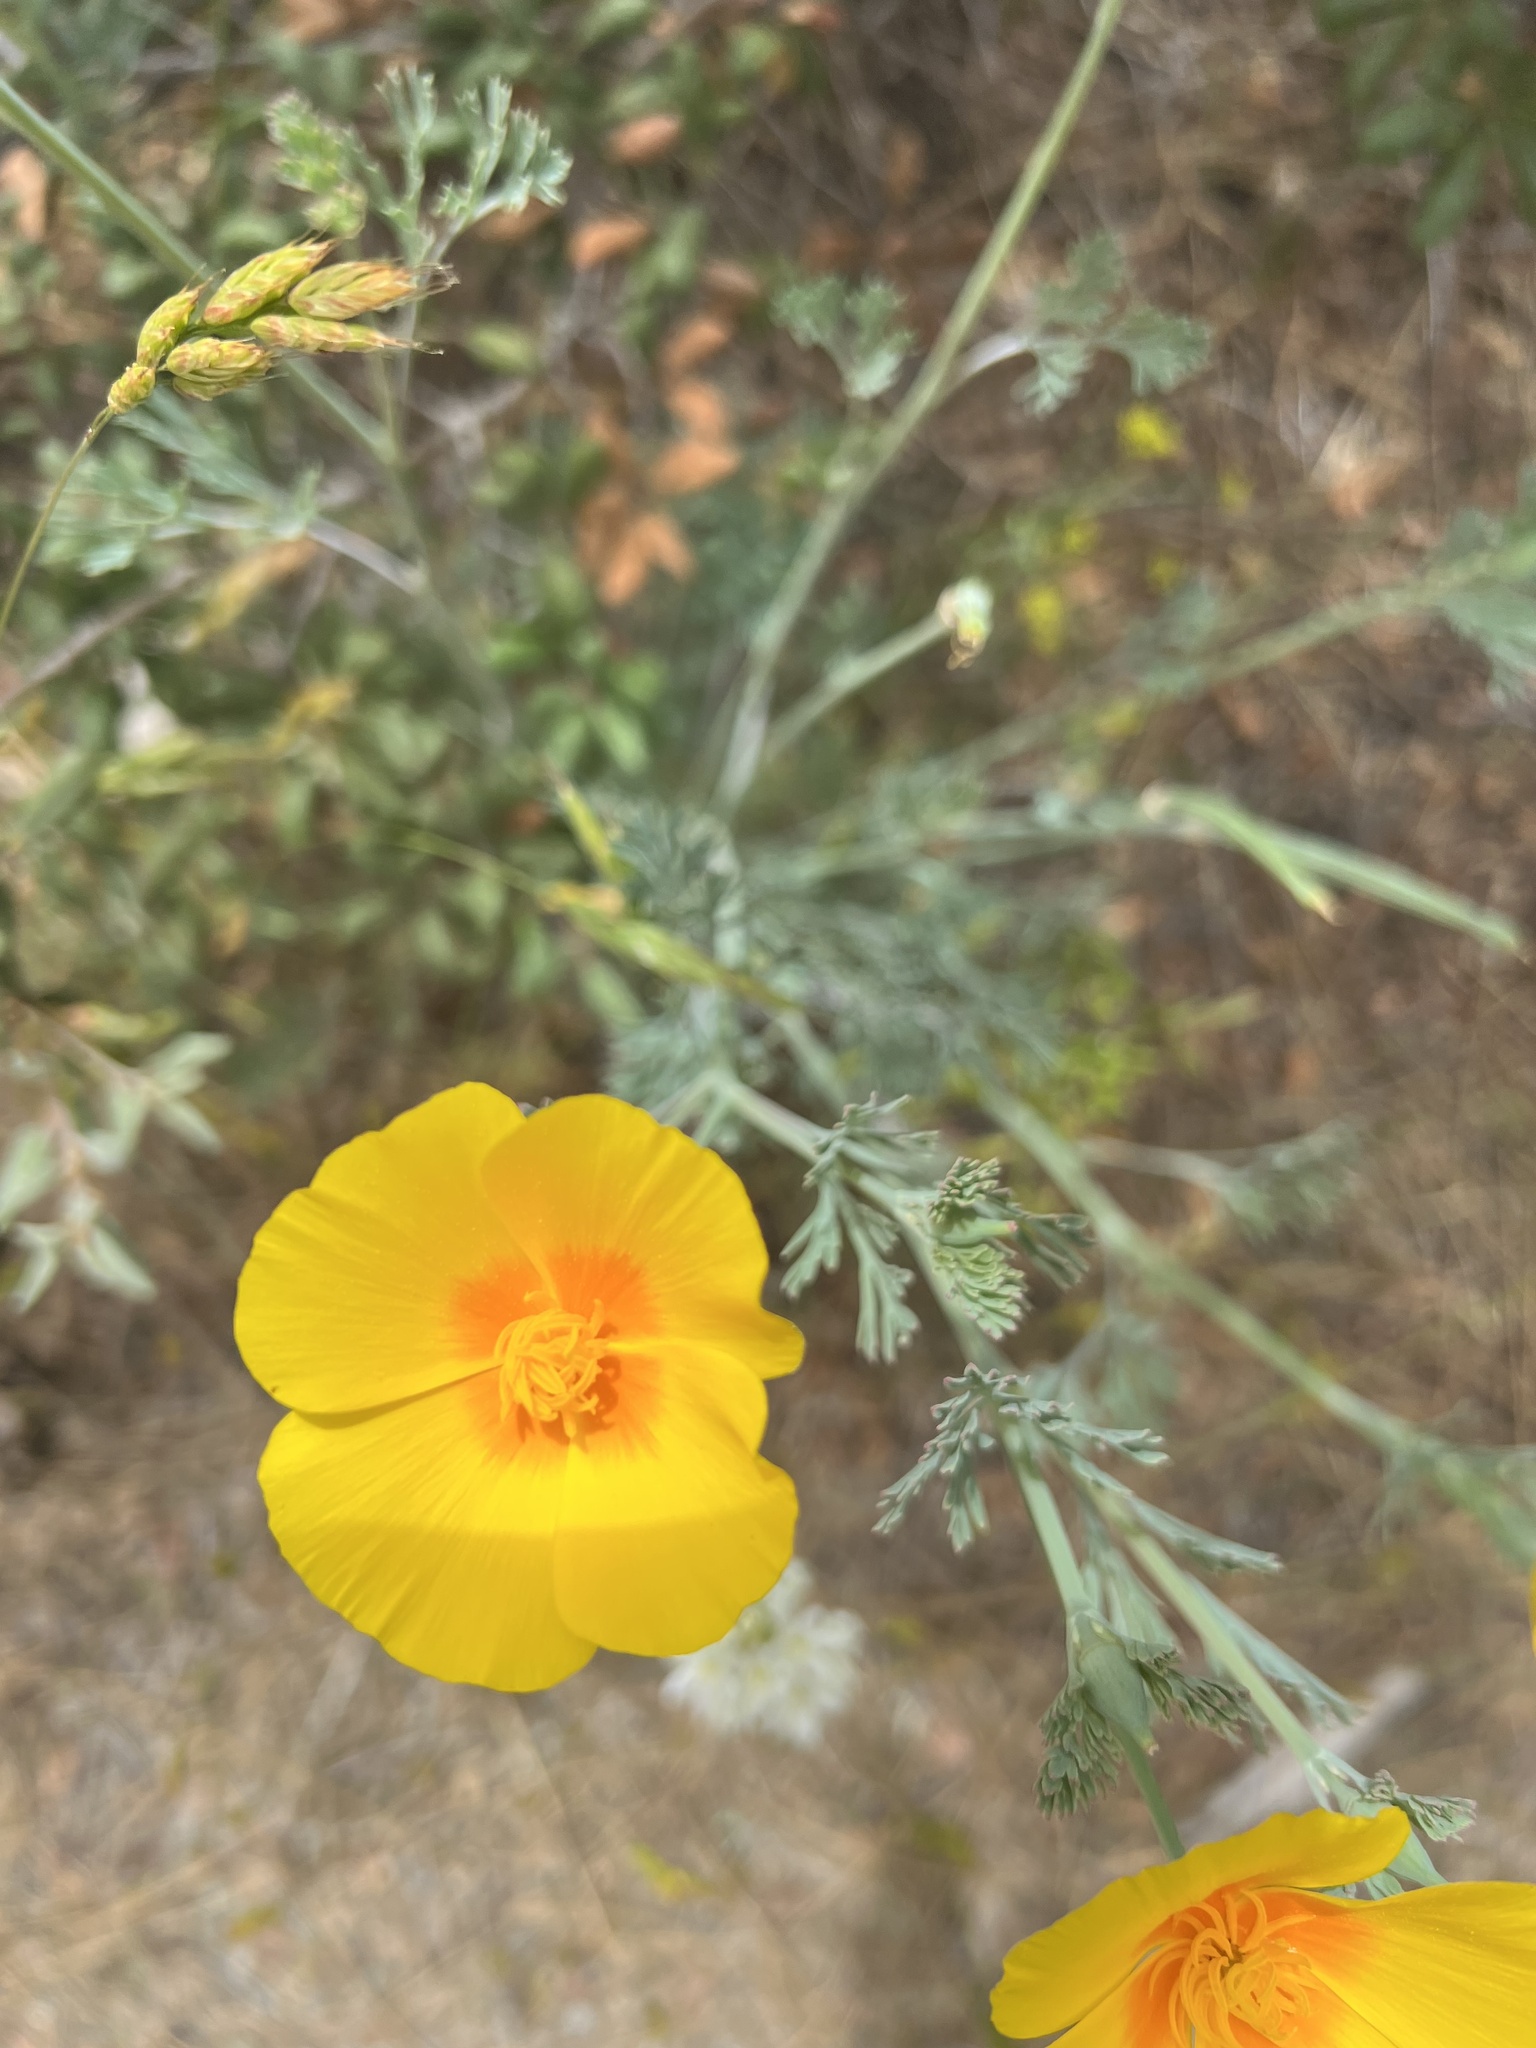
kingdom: Plantae
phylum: Tracheophyta
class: Magnoliopsida
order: Ranunculales
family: Papaveraceae
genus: Eschscholzia
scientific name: Eschscholzia californica
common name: California poppy
